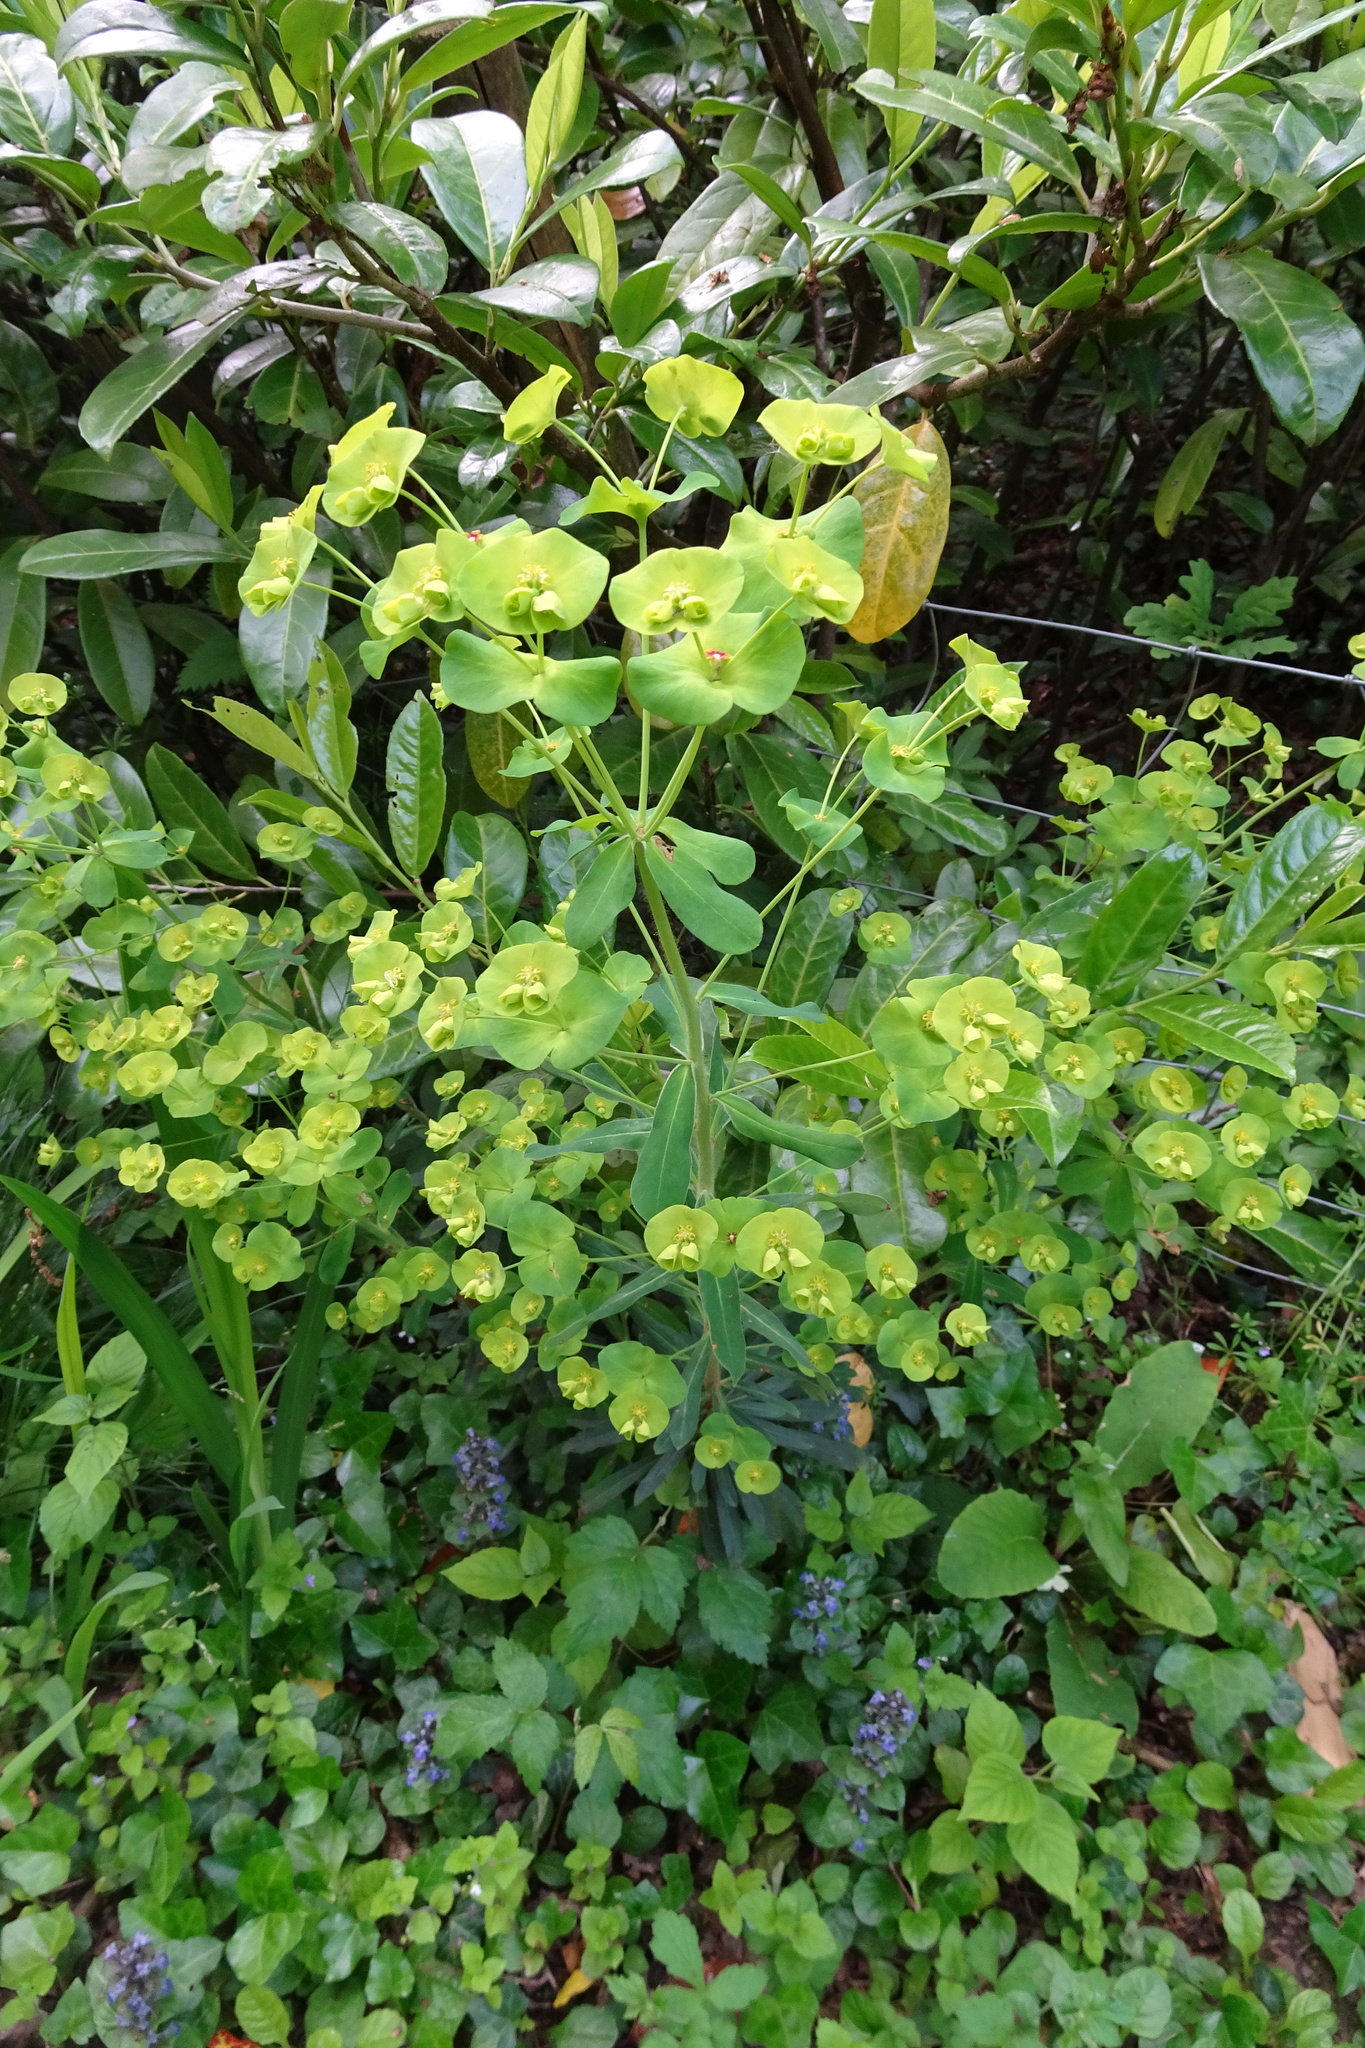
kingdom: Plantae
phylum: Tracheophyta
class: Magnoliopsida
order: Malpighiales
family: Euphorbiaceae
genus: Euphorbia
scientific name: Euphorbia amygdaloides
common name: Wood spurge
